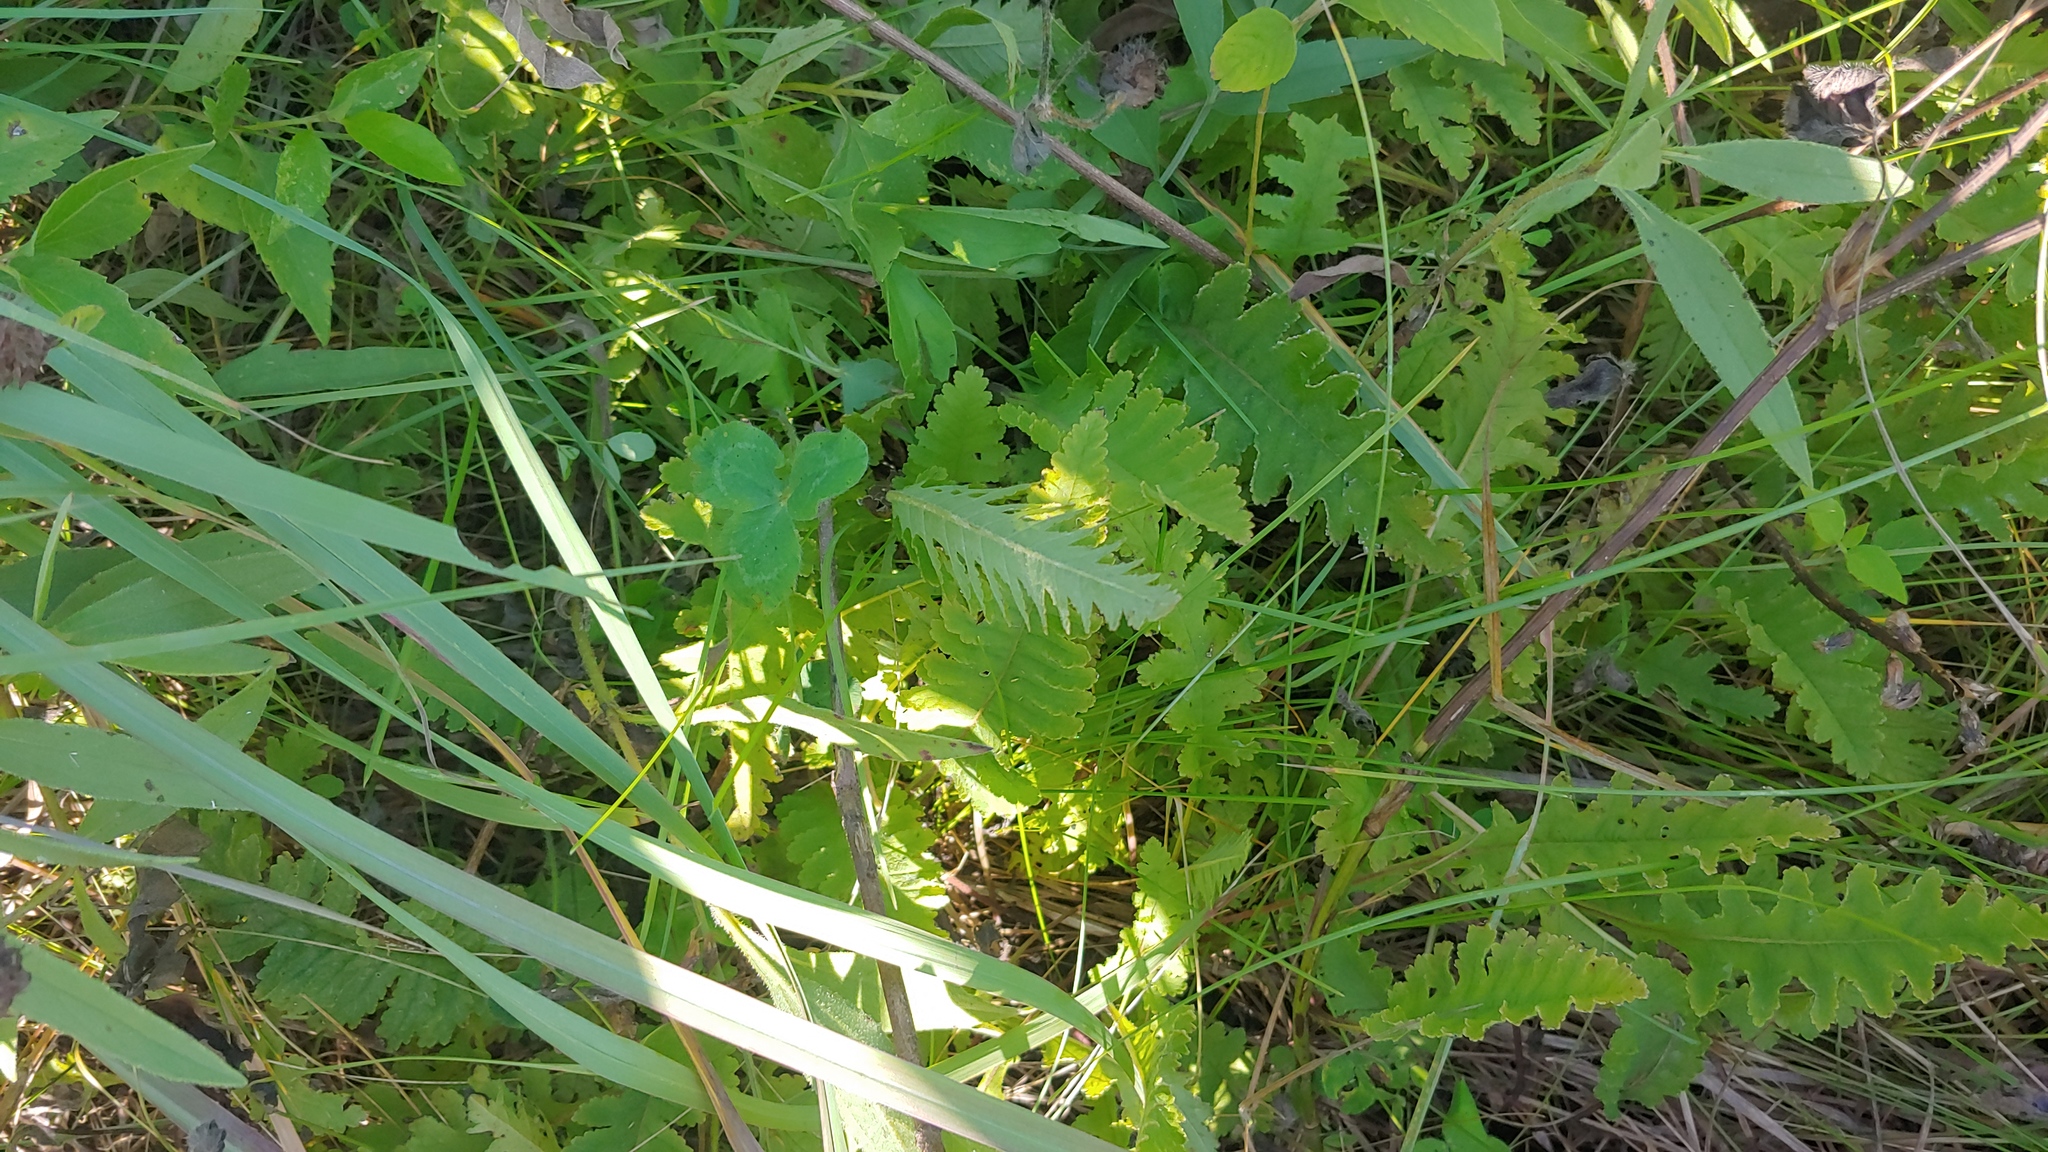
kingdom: Plantae
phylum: Tracheophyta
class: Magnoliopsida
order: Lamiales
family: Orobanchaceae
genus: Pedicularis
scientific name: Pedicularis canadensis
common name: Early lousewort
